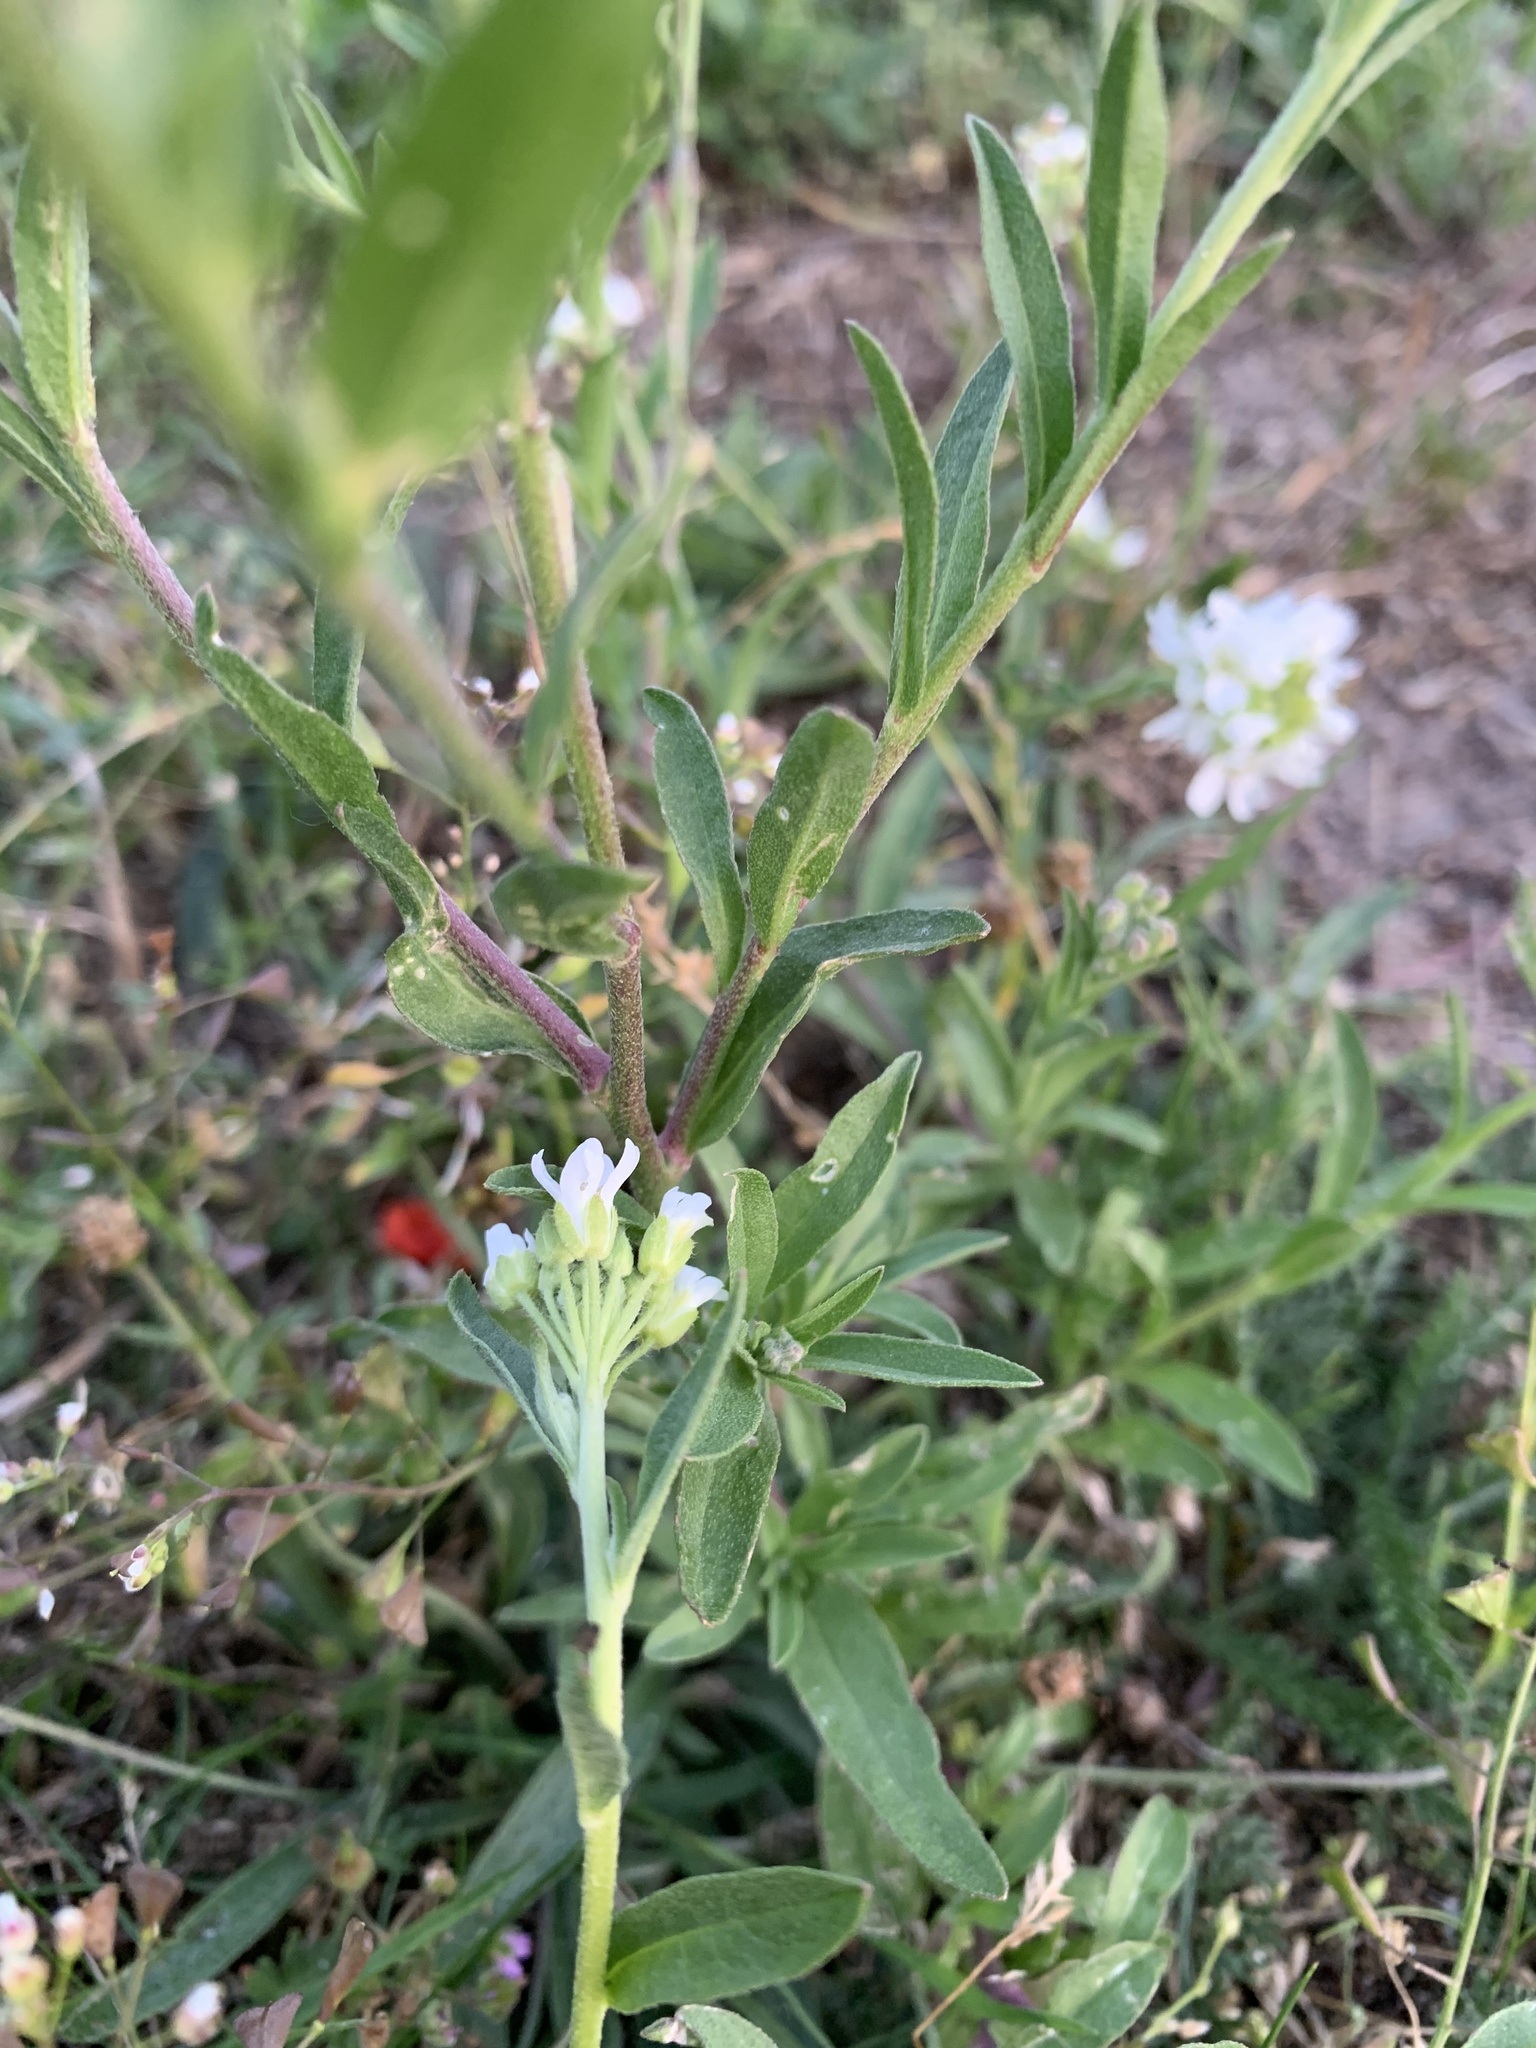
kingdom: Plantae
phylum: Tracheophyta
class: Magnoliopsida
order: Brassicales
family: Brassicaceae
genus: Berteroa
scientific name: Berteroa incana
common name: Hoary alison
